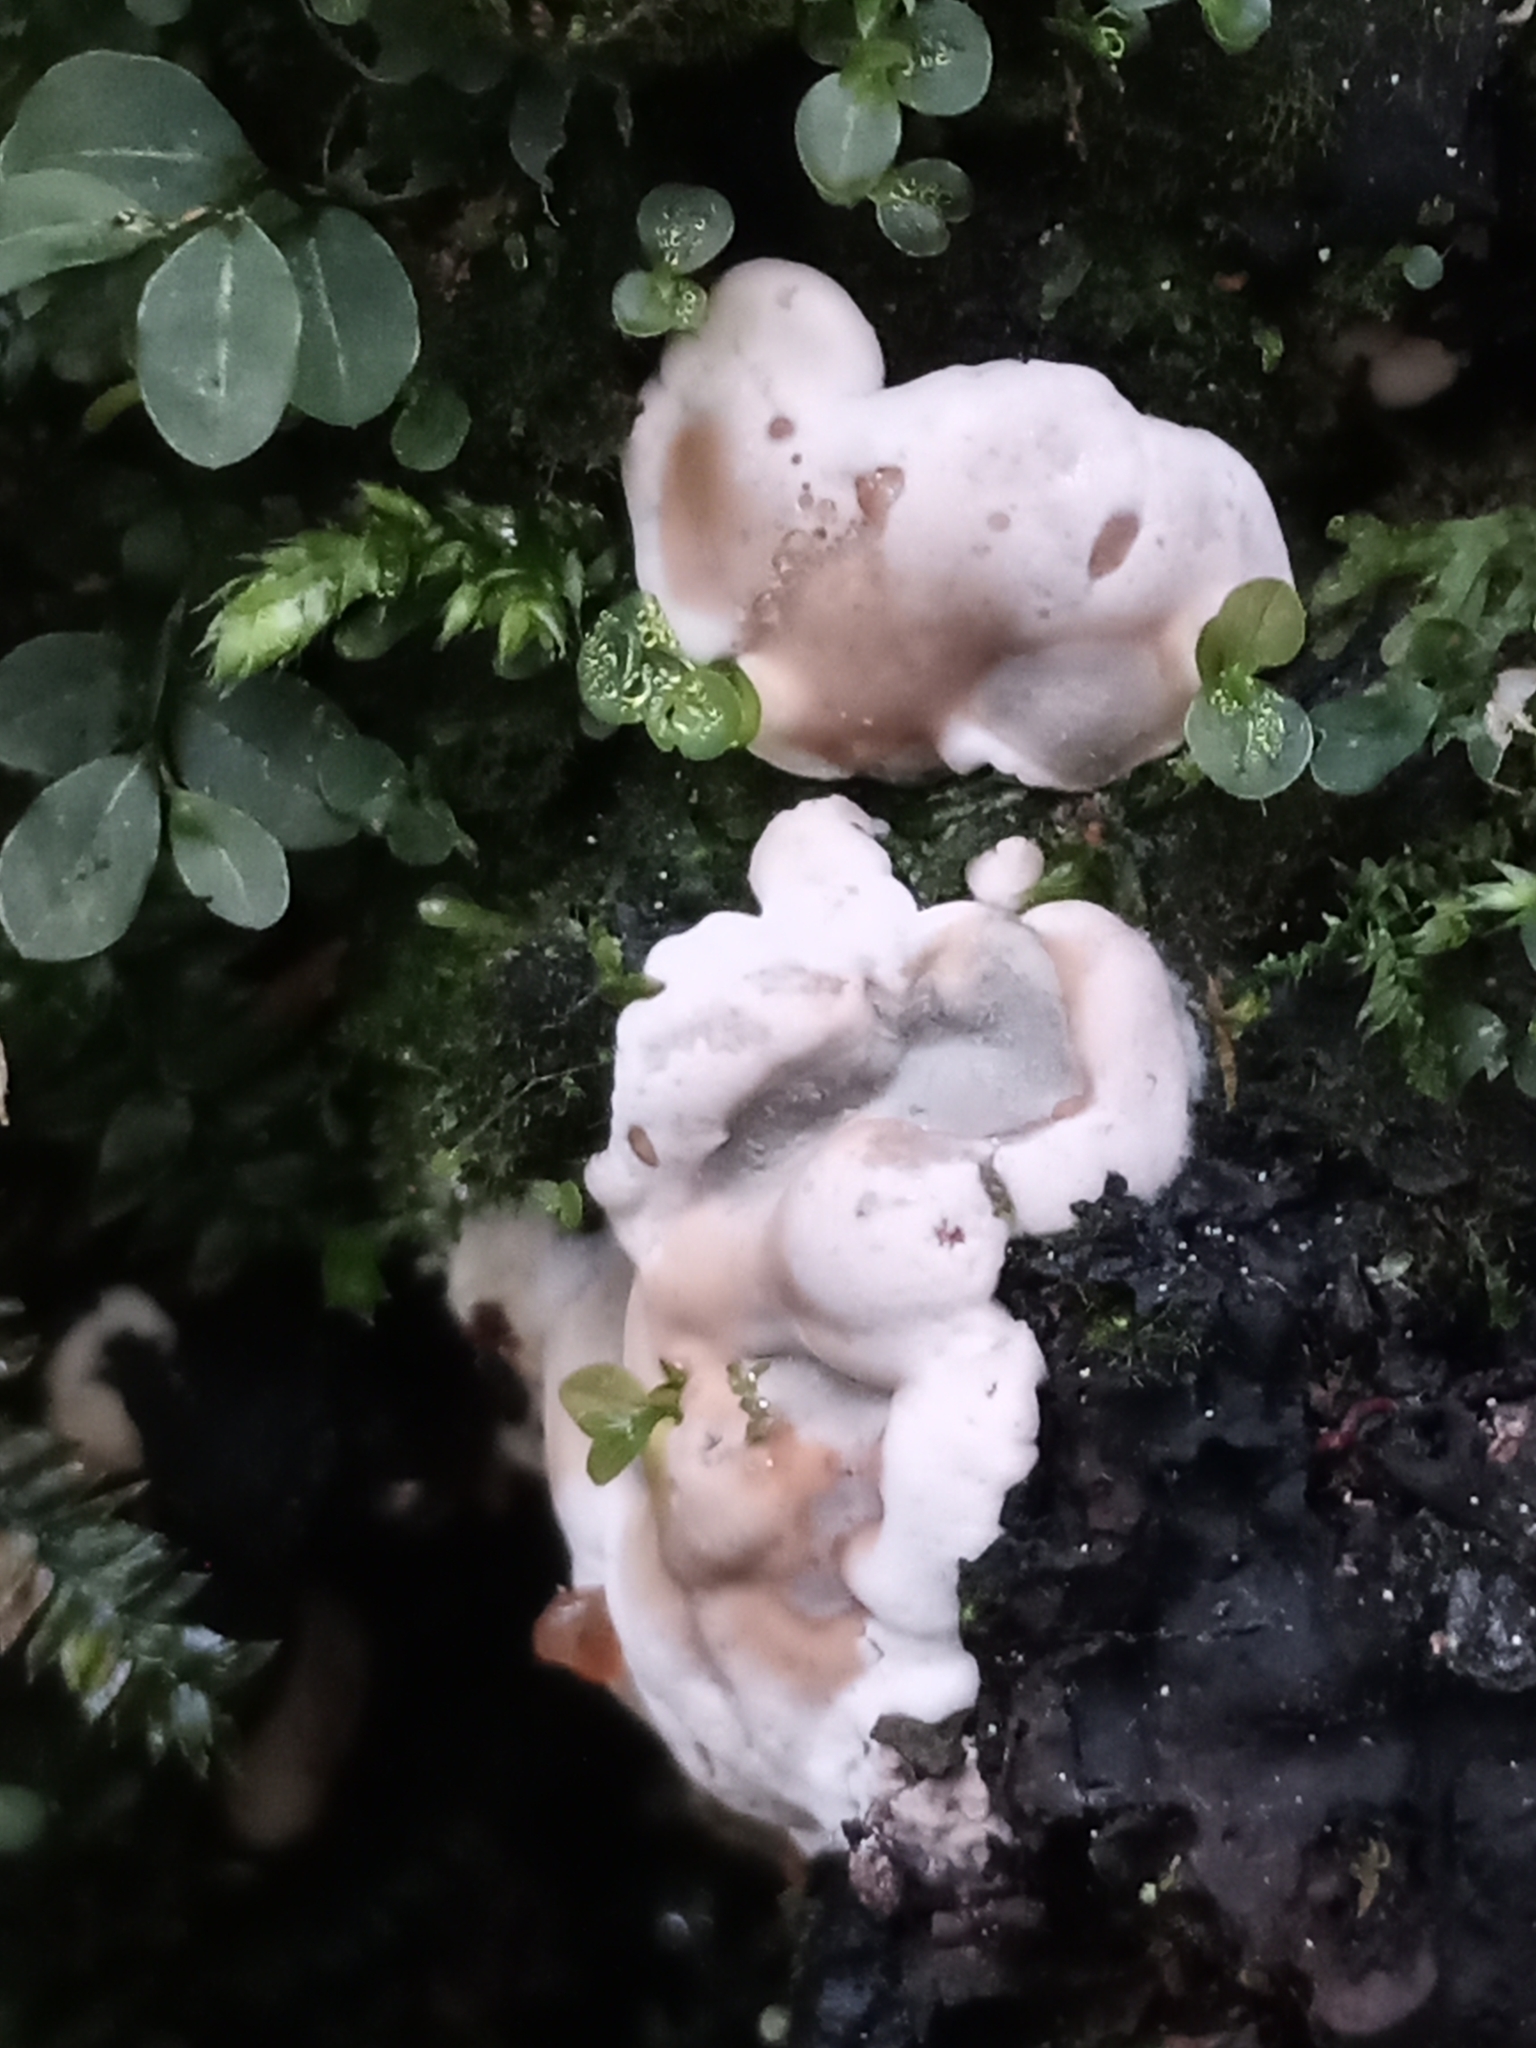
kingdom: Fungi
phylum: Ascomycota
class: Sordariomycetes
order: Xylariales
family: Xylariaceae
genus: Kretzschmaria
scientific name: Kretzschmaria deusta
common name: Brittle cinder
